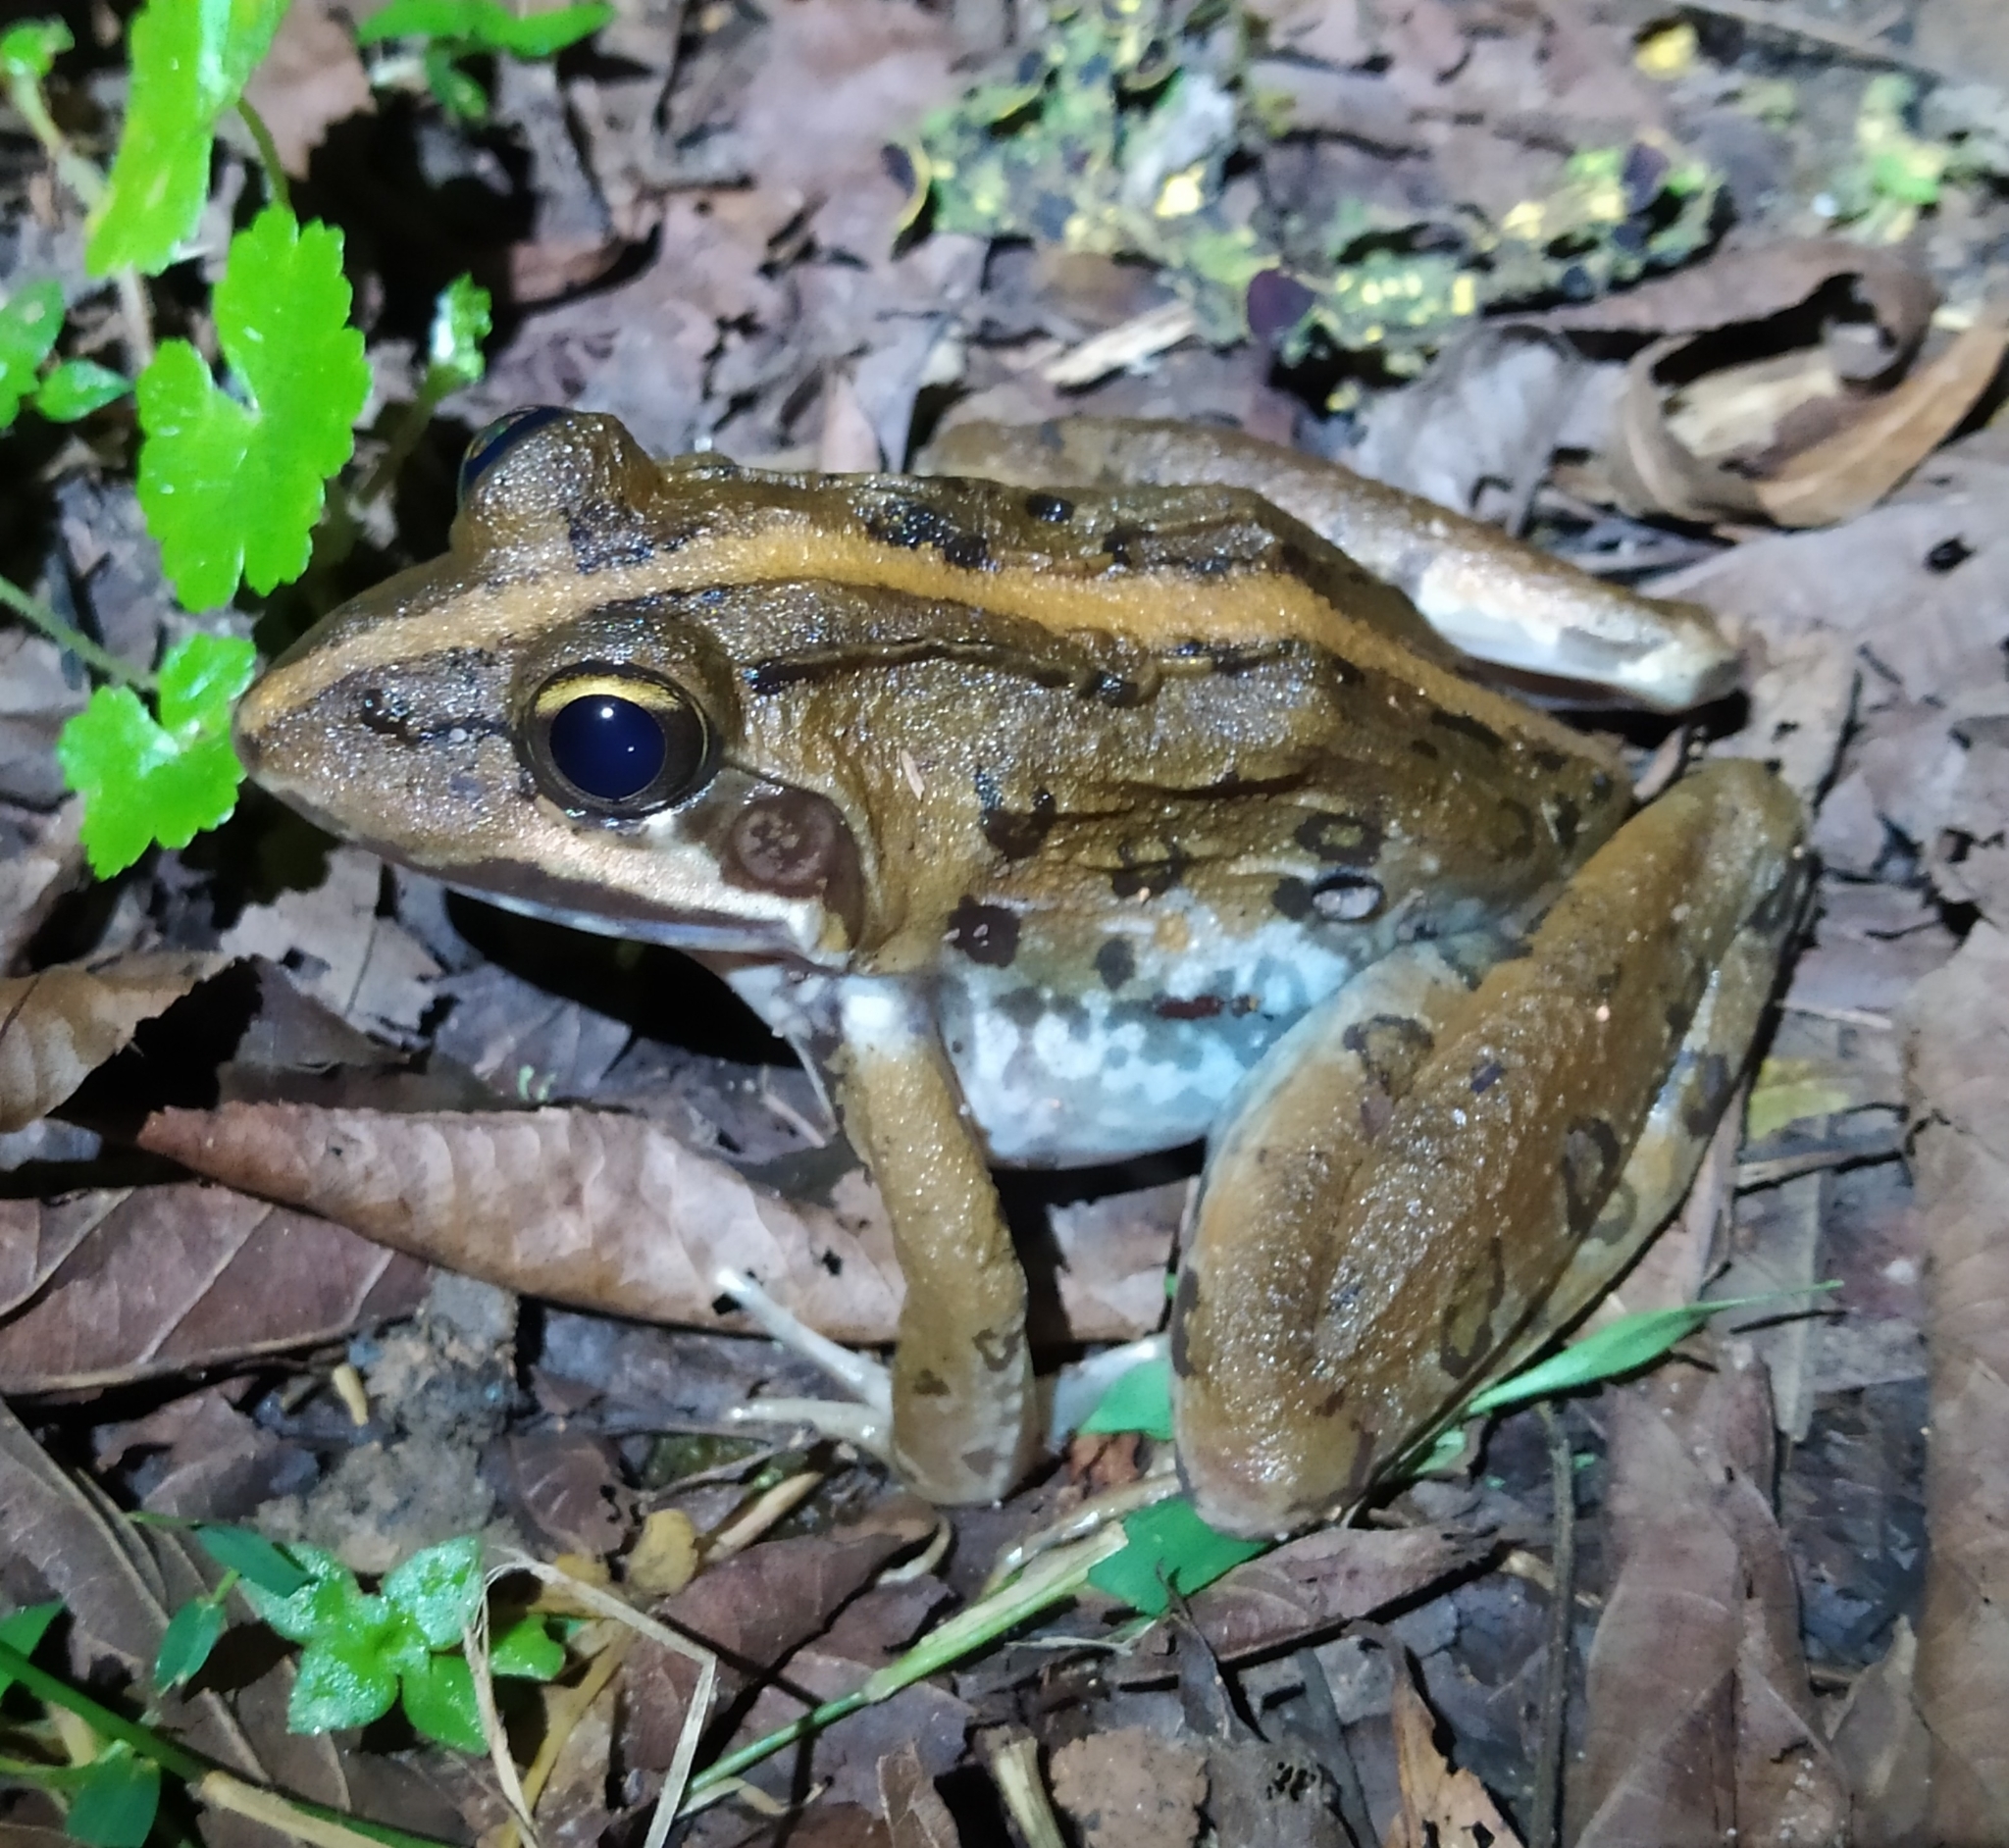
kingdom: Animalia
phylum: Chordata
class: Amphibia
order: Anura
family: Pyxicephalidae
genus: Amietia
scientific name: Amietia delalandii
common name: Delalande's river frog
